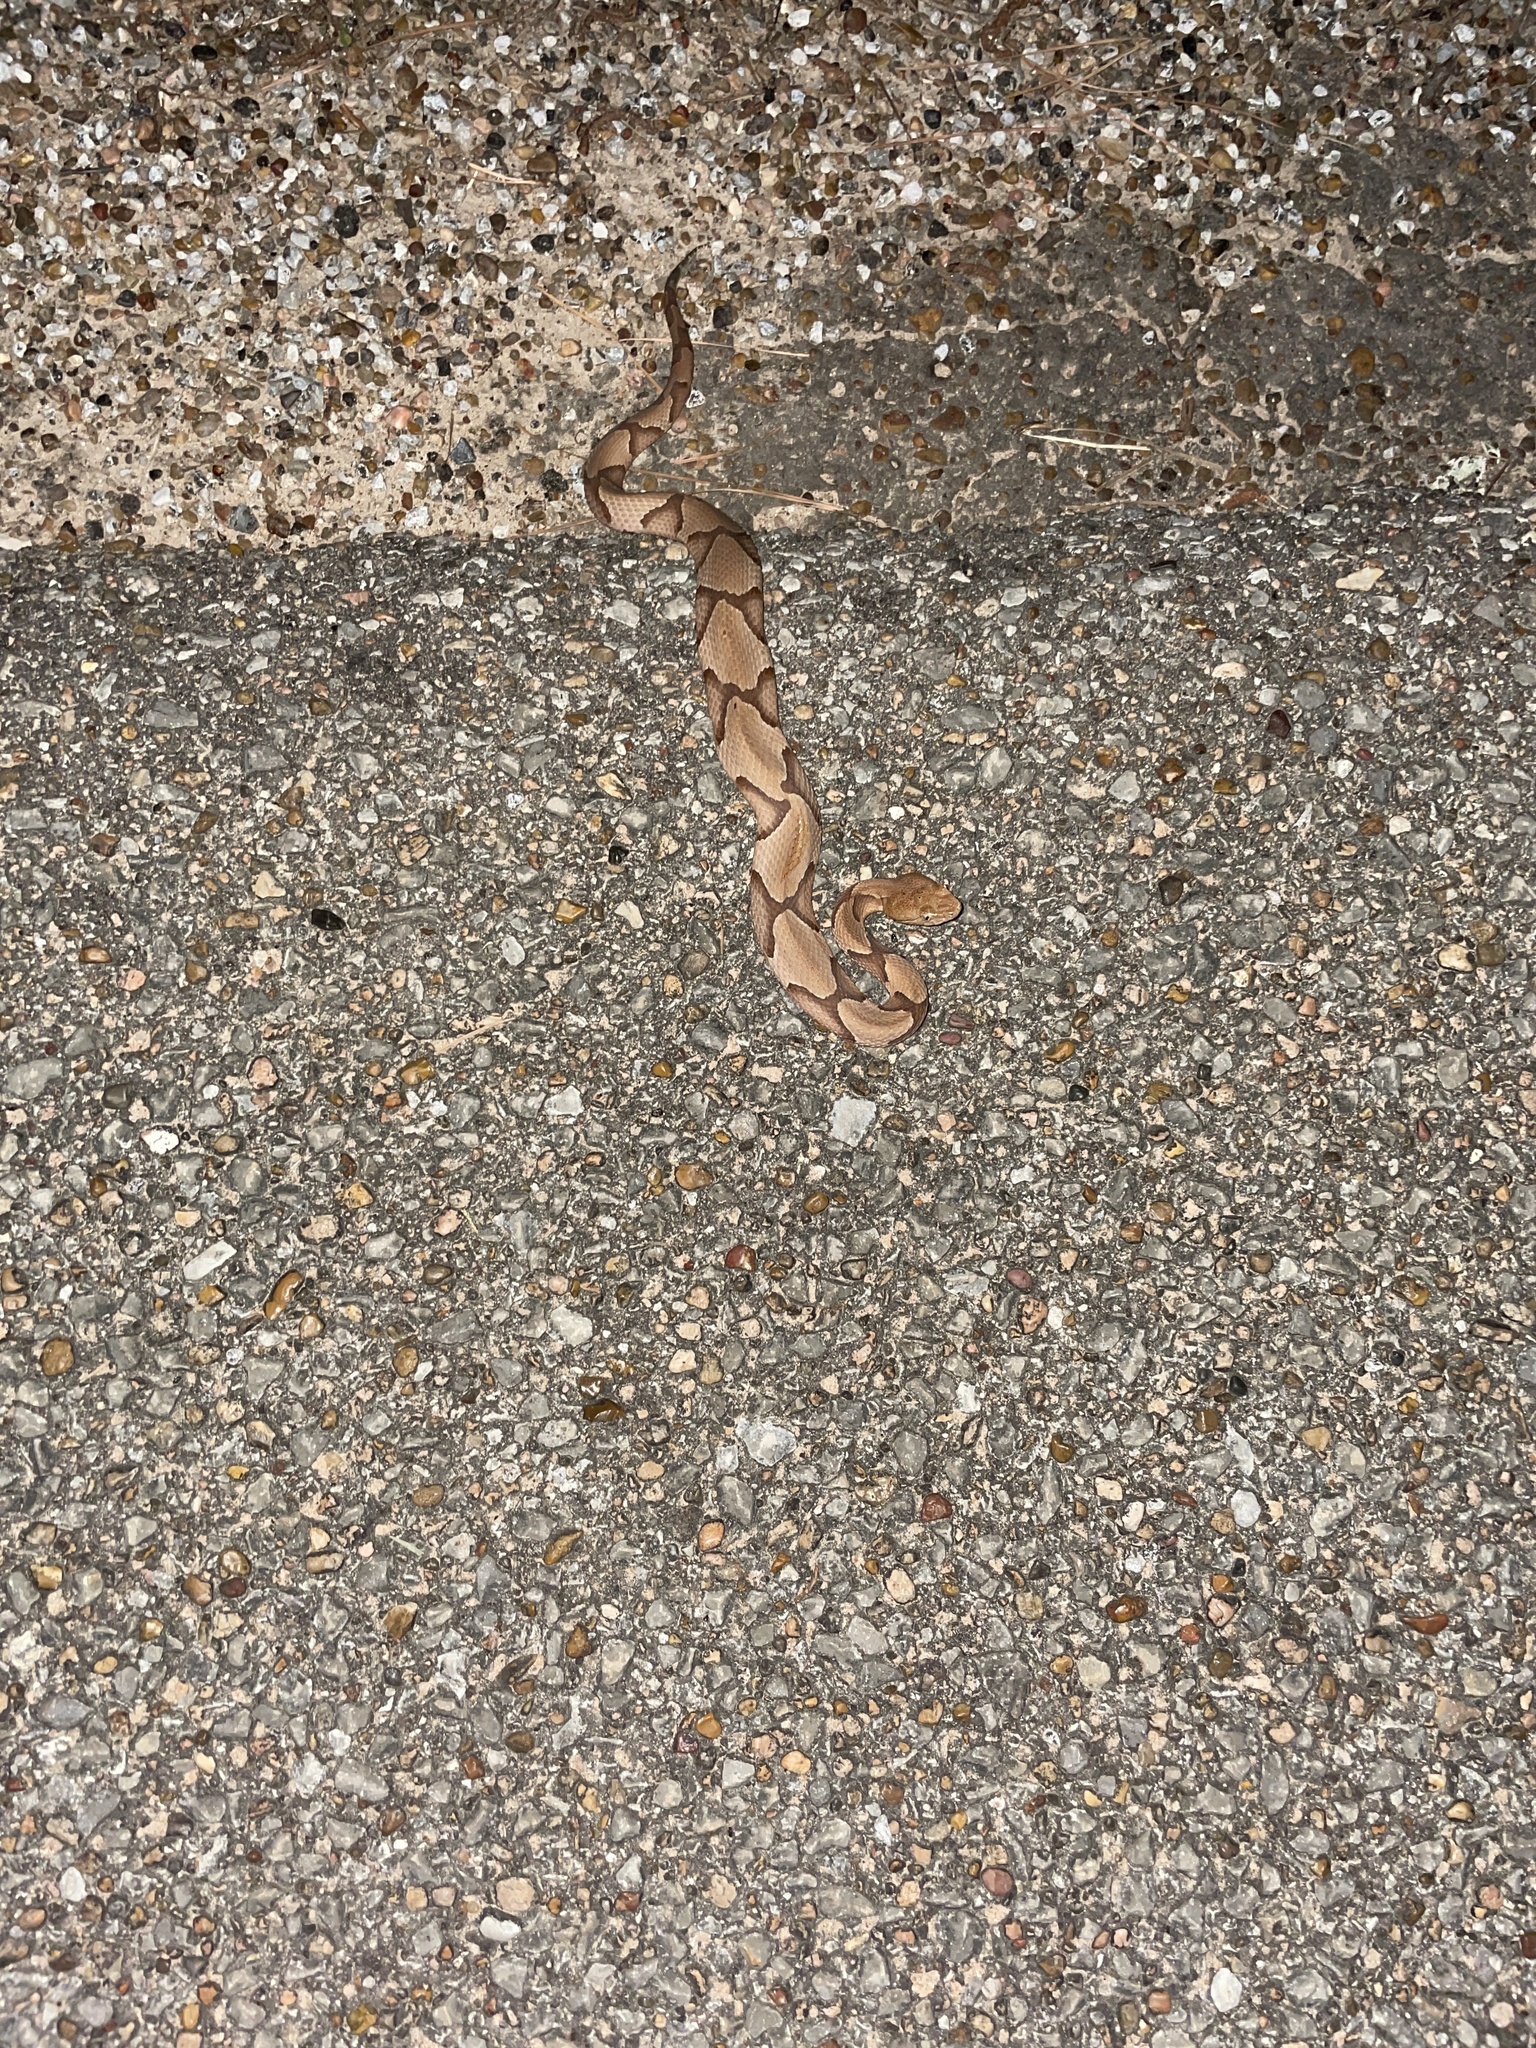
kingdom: Animalia
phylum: Chordata
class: Squamata
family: Viperidae
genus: Agkistrodon
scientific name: Agkistrodon contortrix
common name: Northern copperhead
